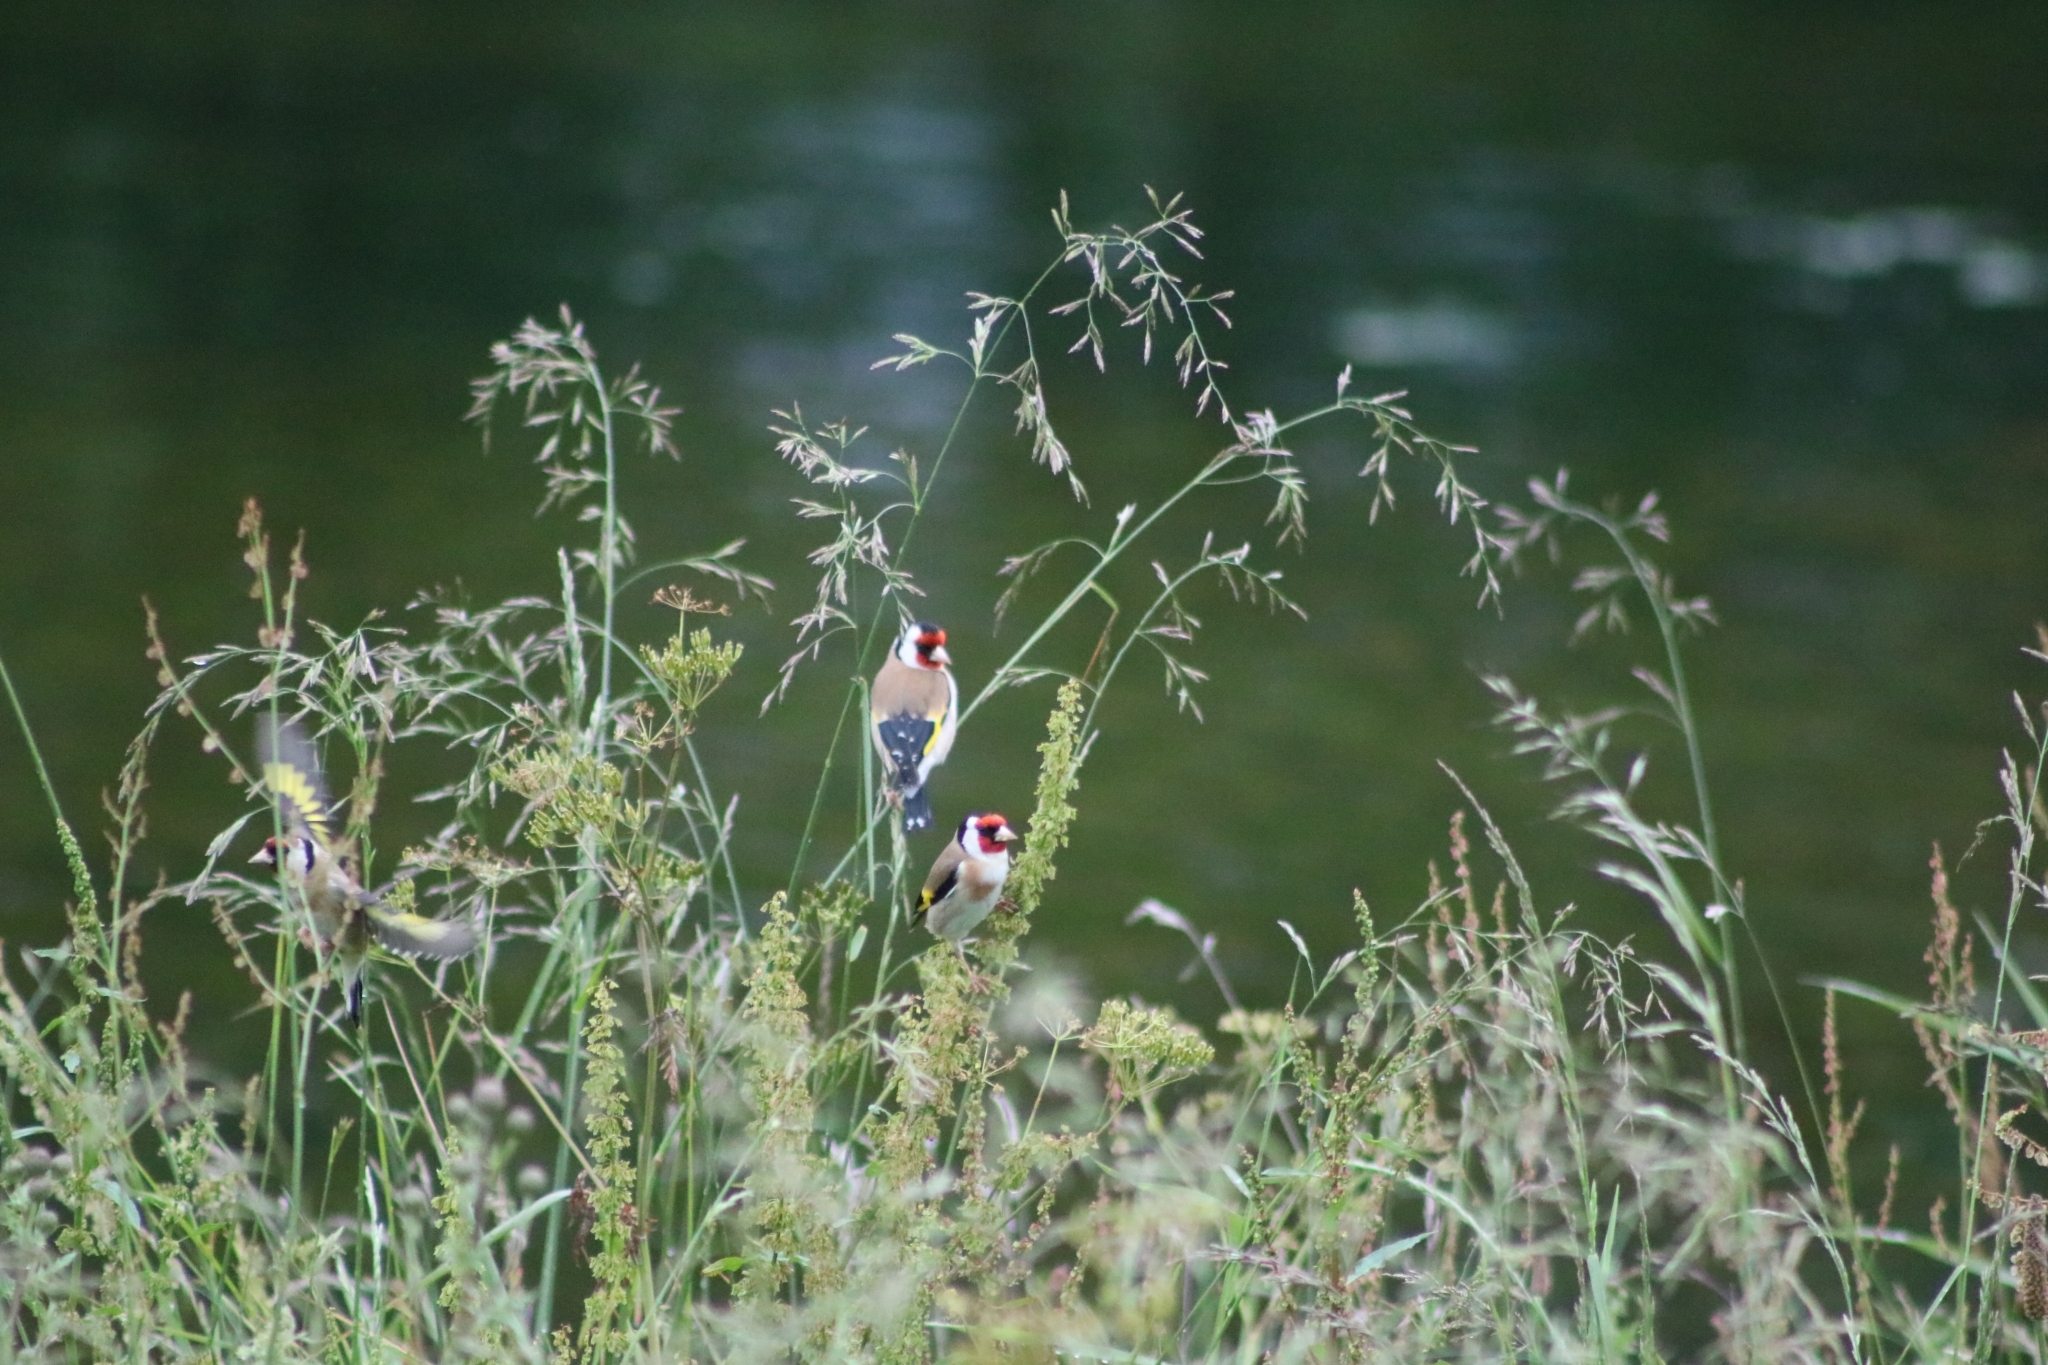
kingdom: Animalia
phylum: Chordata
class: Aves
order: Passeriformes
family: Fringillidae
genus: Carduelis
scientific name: Carduelis carduelis
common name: European goldfinch
